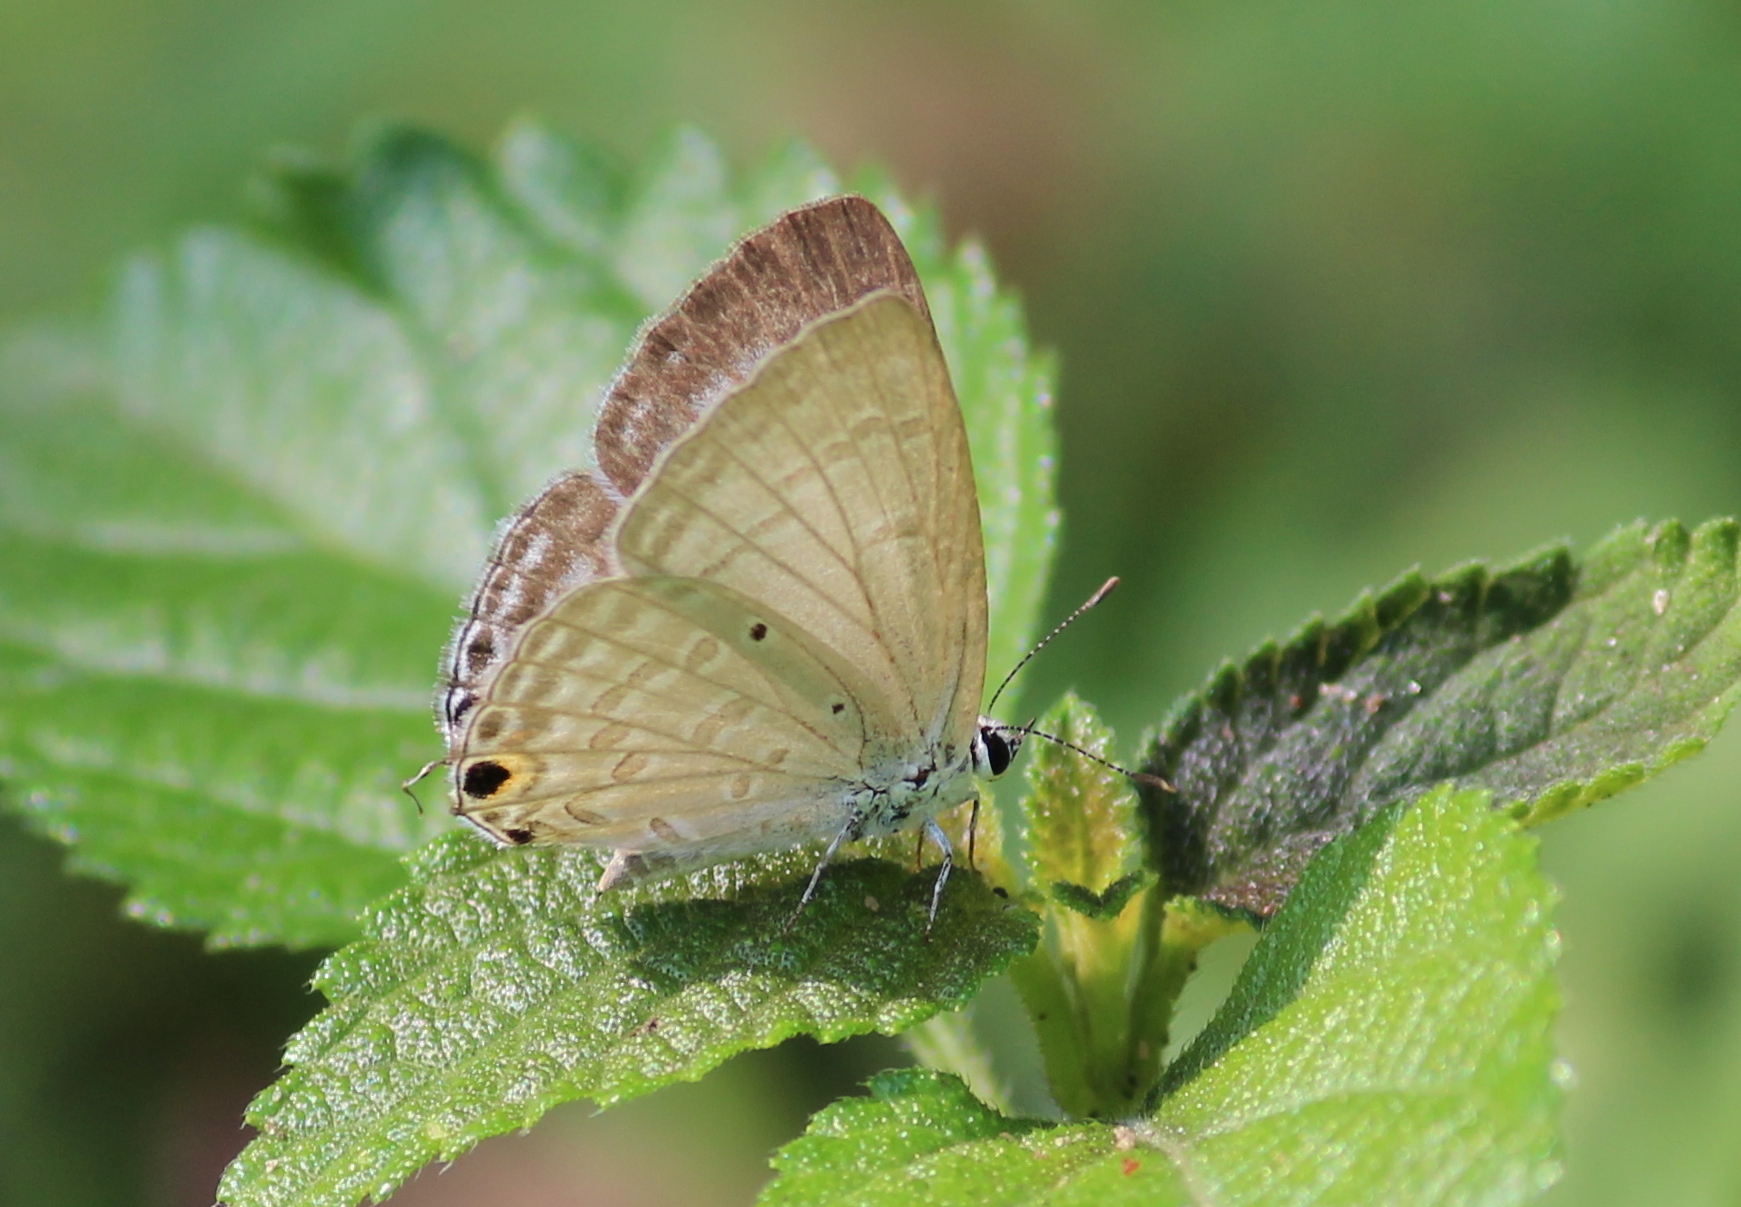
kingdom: Animalia
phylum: Arthropoda
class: Insecta
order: Lepidoptera
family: Lycaenidae
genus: Catochrysops
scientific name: Catochrysops strabo
